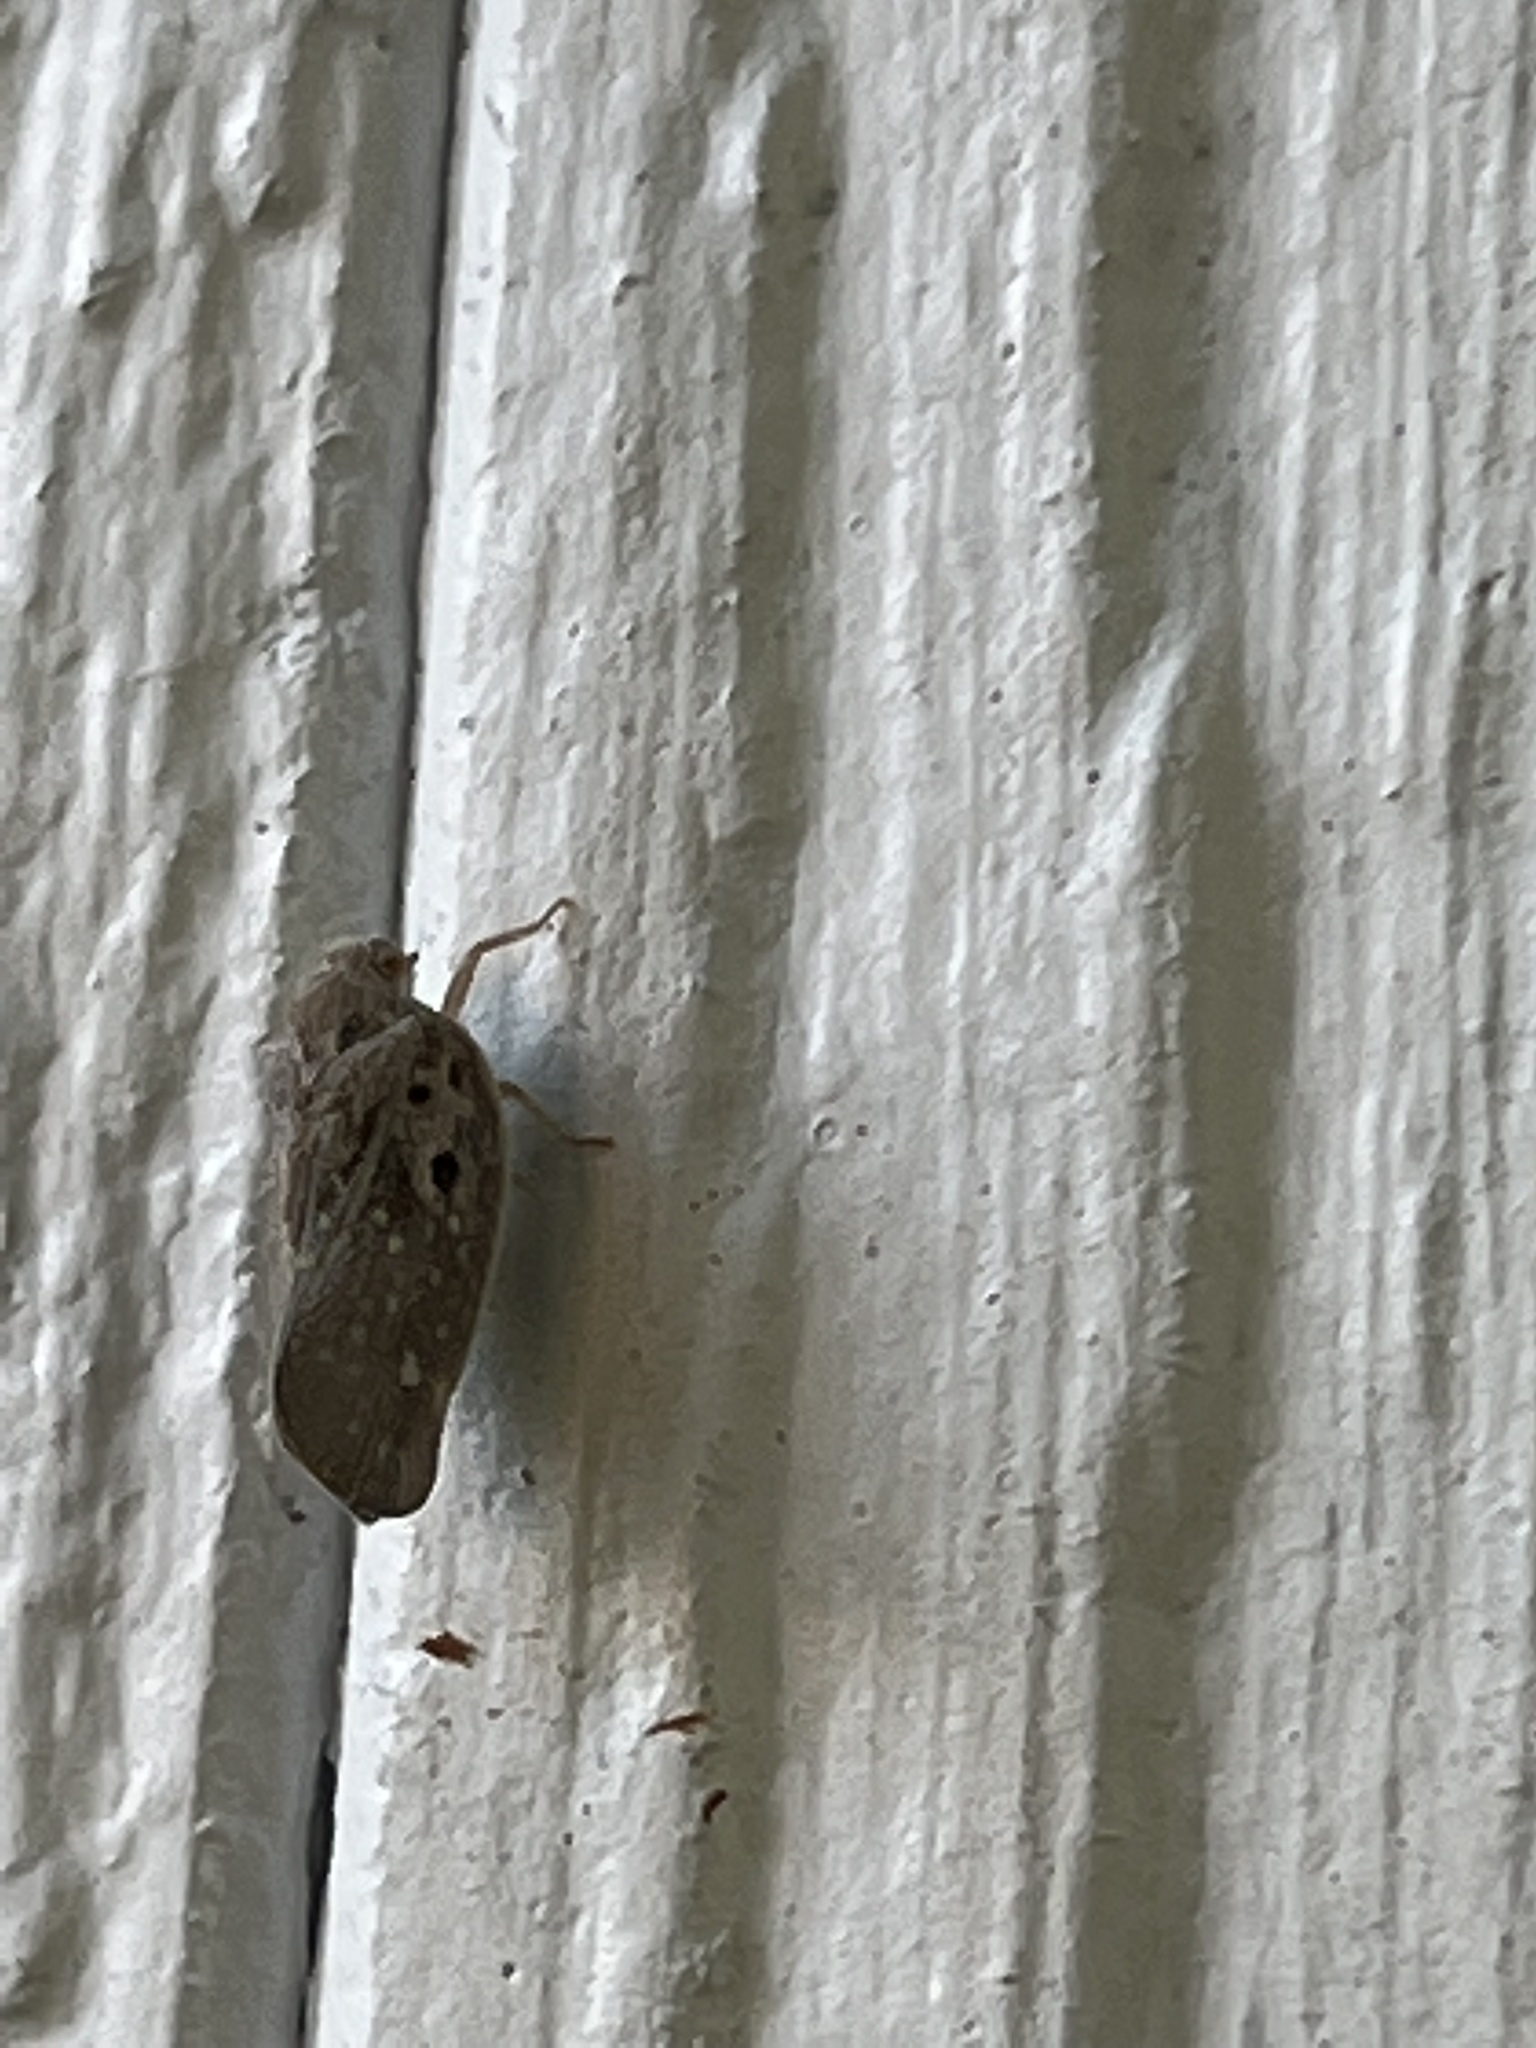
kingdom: Animalia
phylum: Arthropoda
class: Insecta
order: Hemiptera
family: Flatidae
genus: Metcalfa
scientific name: Metcalfa pruinosa
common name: Citrus flatid planthopper
